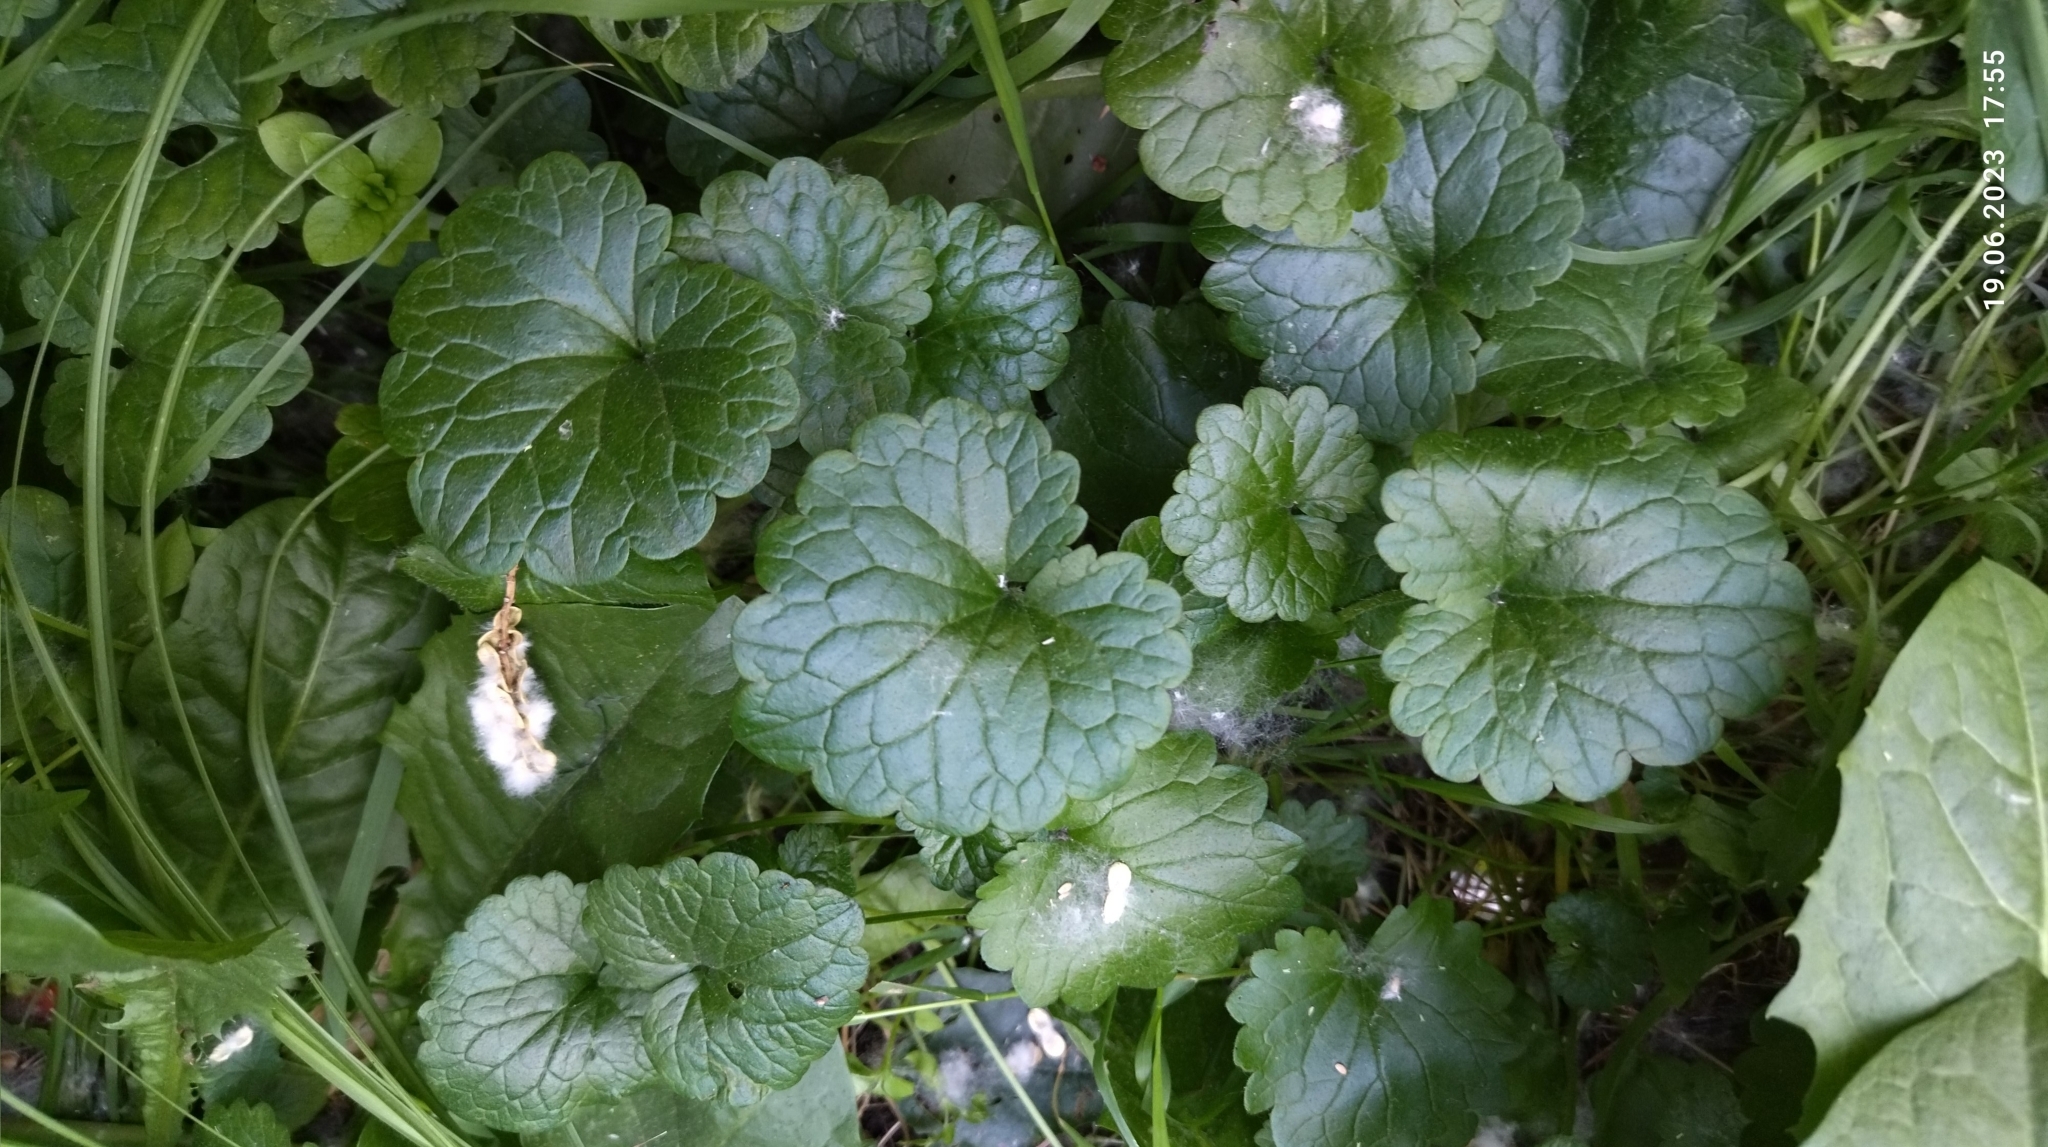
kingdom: Plantae
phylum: Tracheophyta
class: Magnoliopsida
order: Lamiales
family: Lamiaceae
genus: Glechoma
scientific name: Glechoma hederacea
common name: Ground ivy
